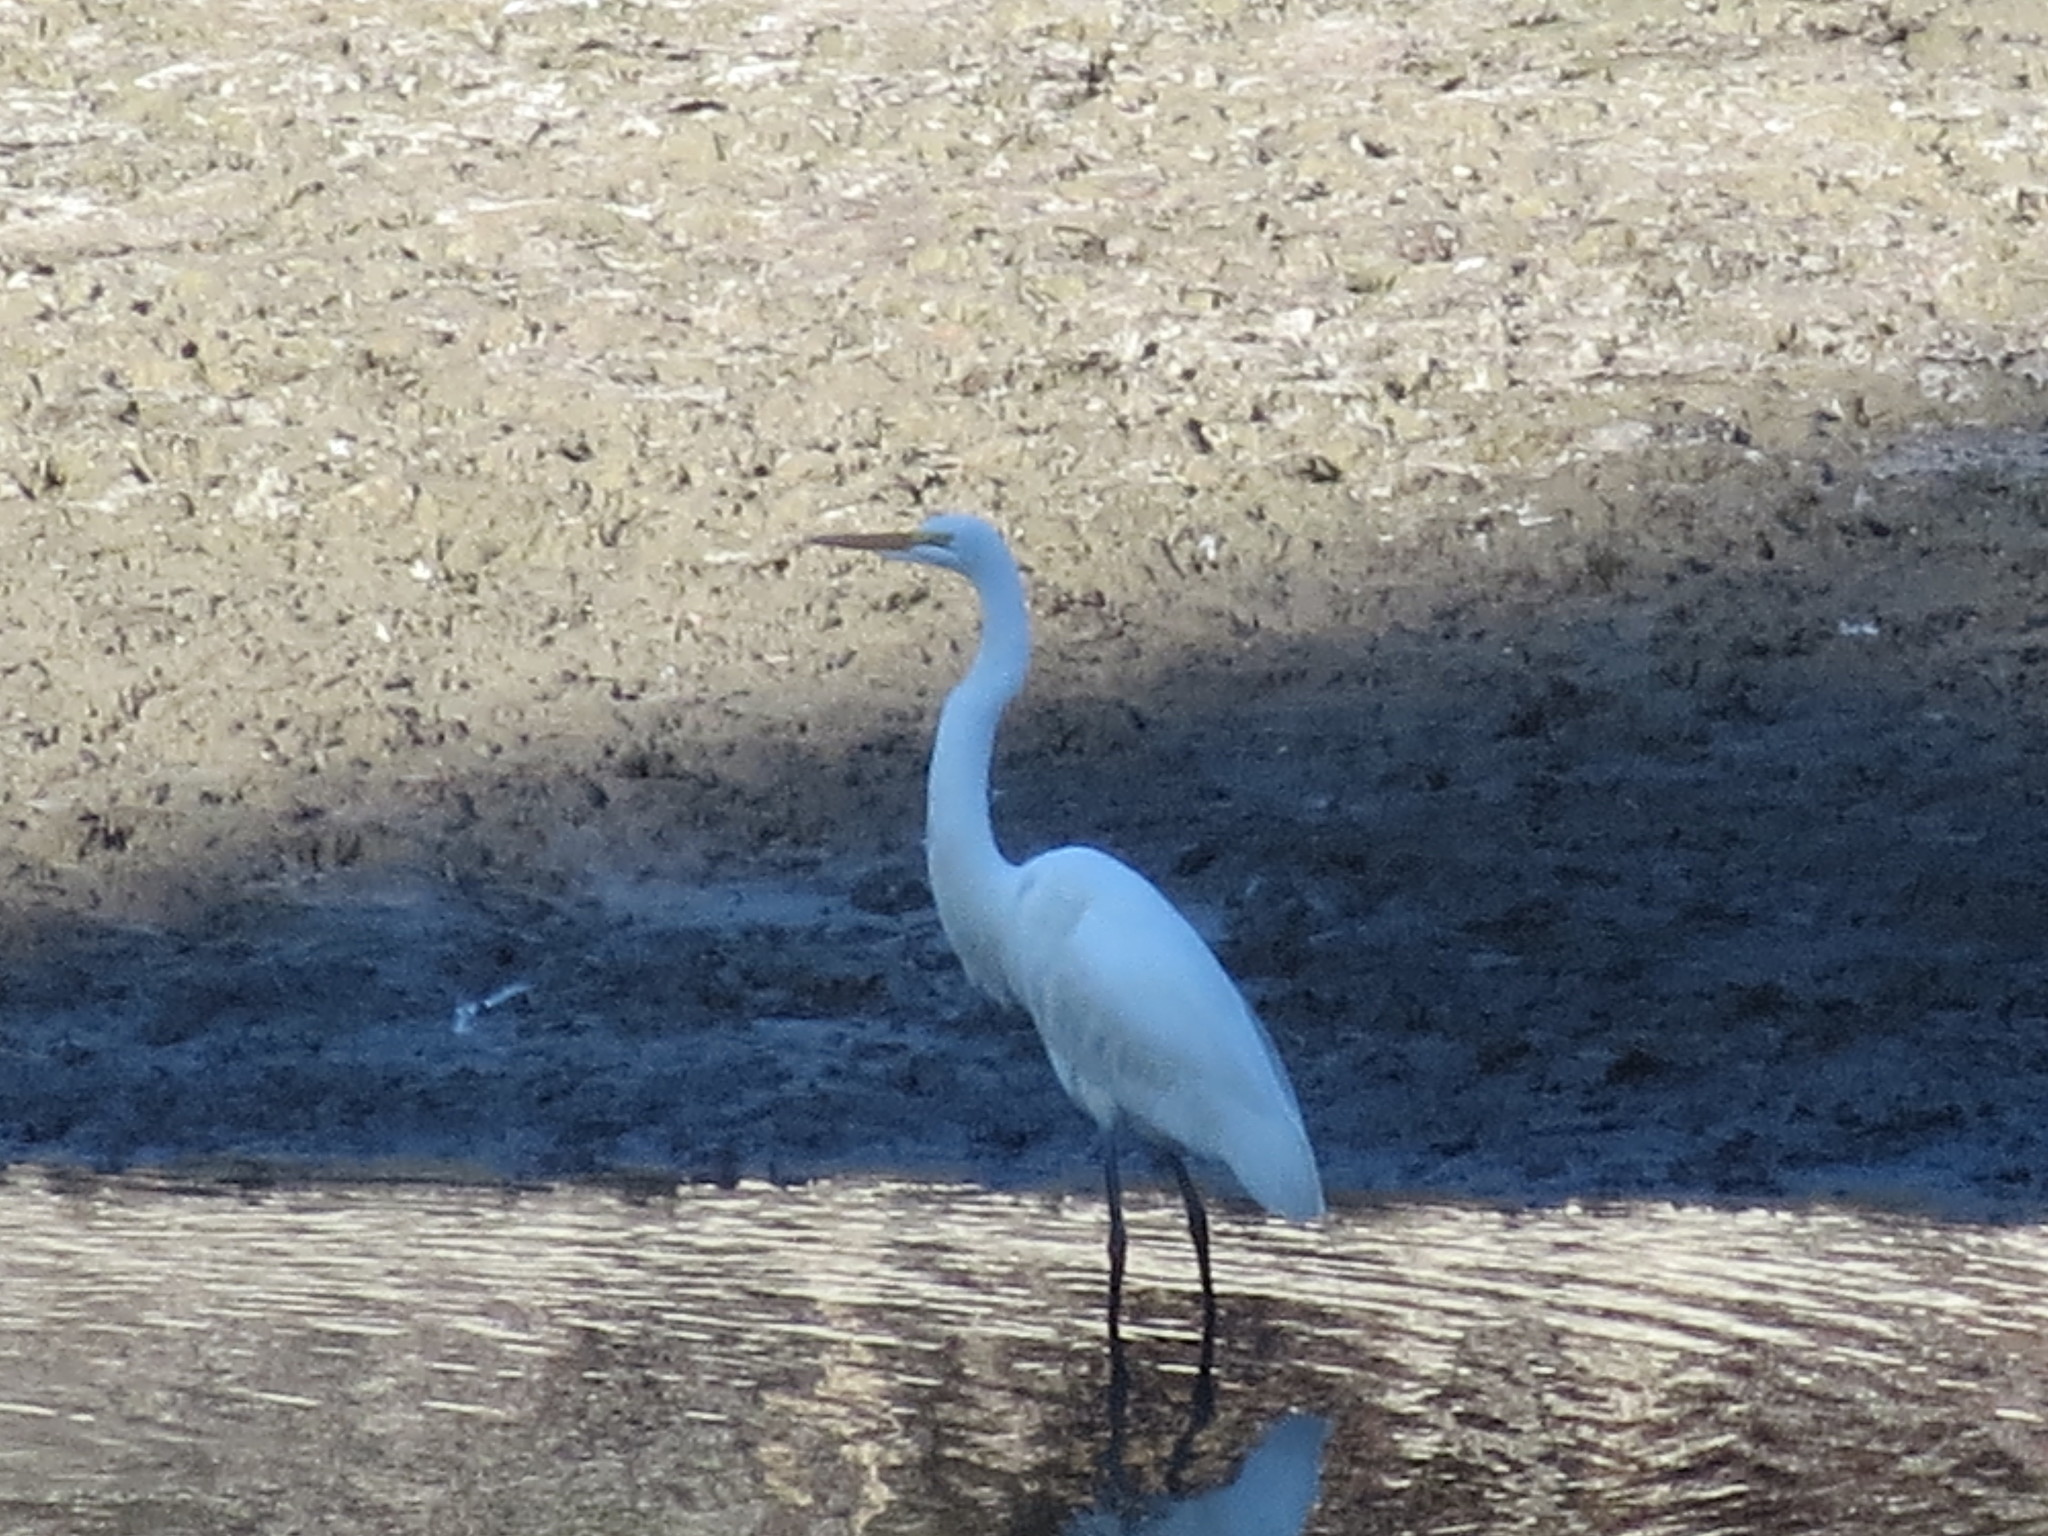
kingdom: Animalia
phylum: Chordata
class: Aves
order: Pelecaniformes
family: Ardeidae
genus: Ardea
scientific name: Ardea alba
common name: Great egret
